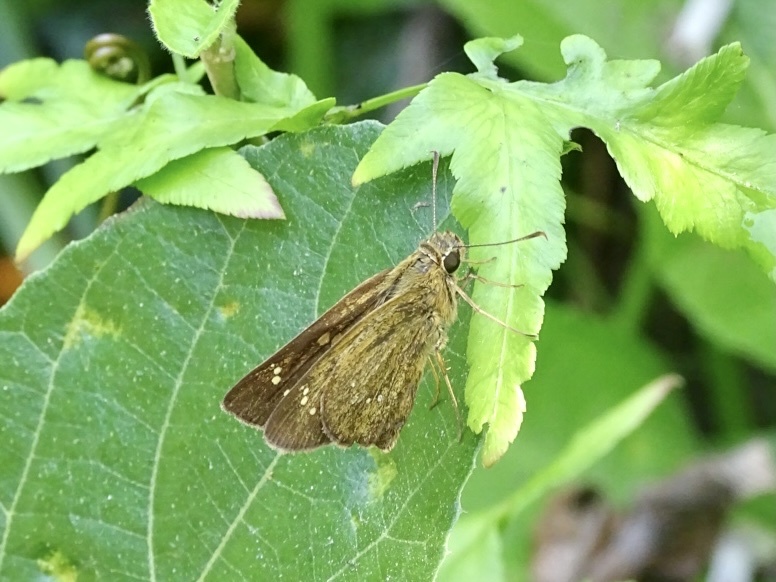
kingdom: Animalia
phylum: Arthropoda
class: Insecta
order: Lepidoptera
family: Hesperiidae
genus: Polytremis
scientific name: Polytremis lubricans
